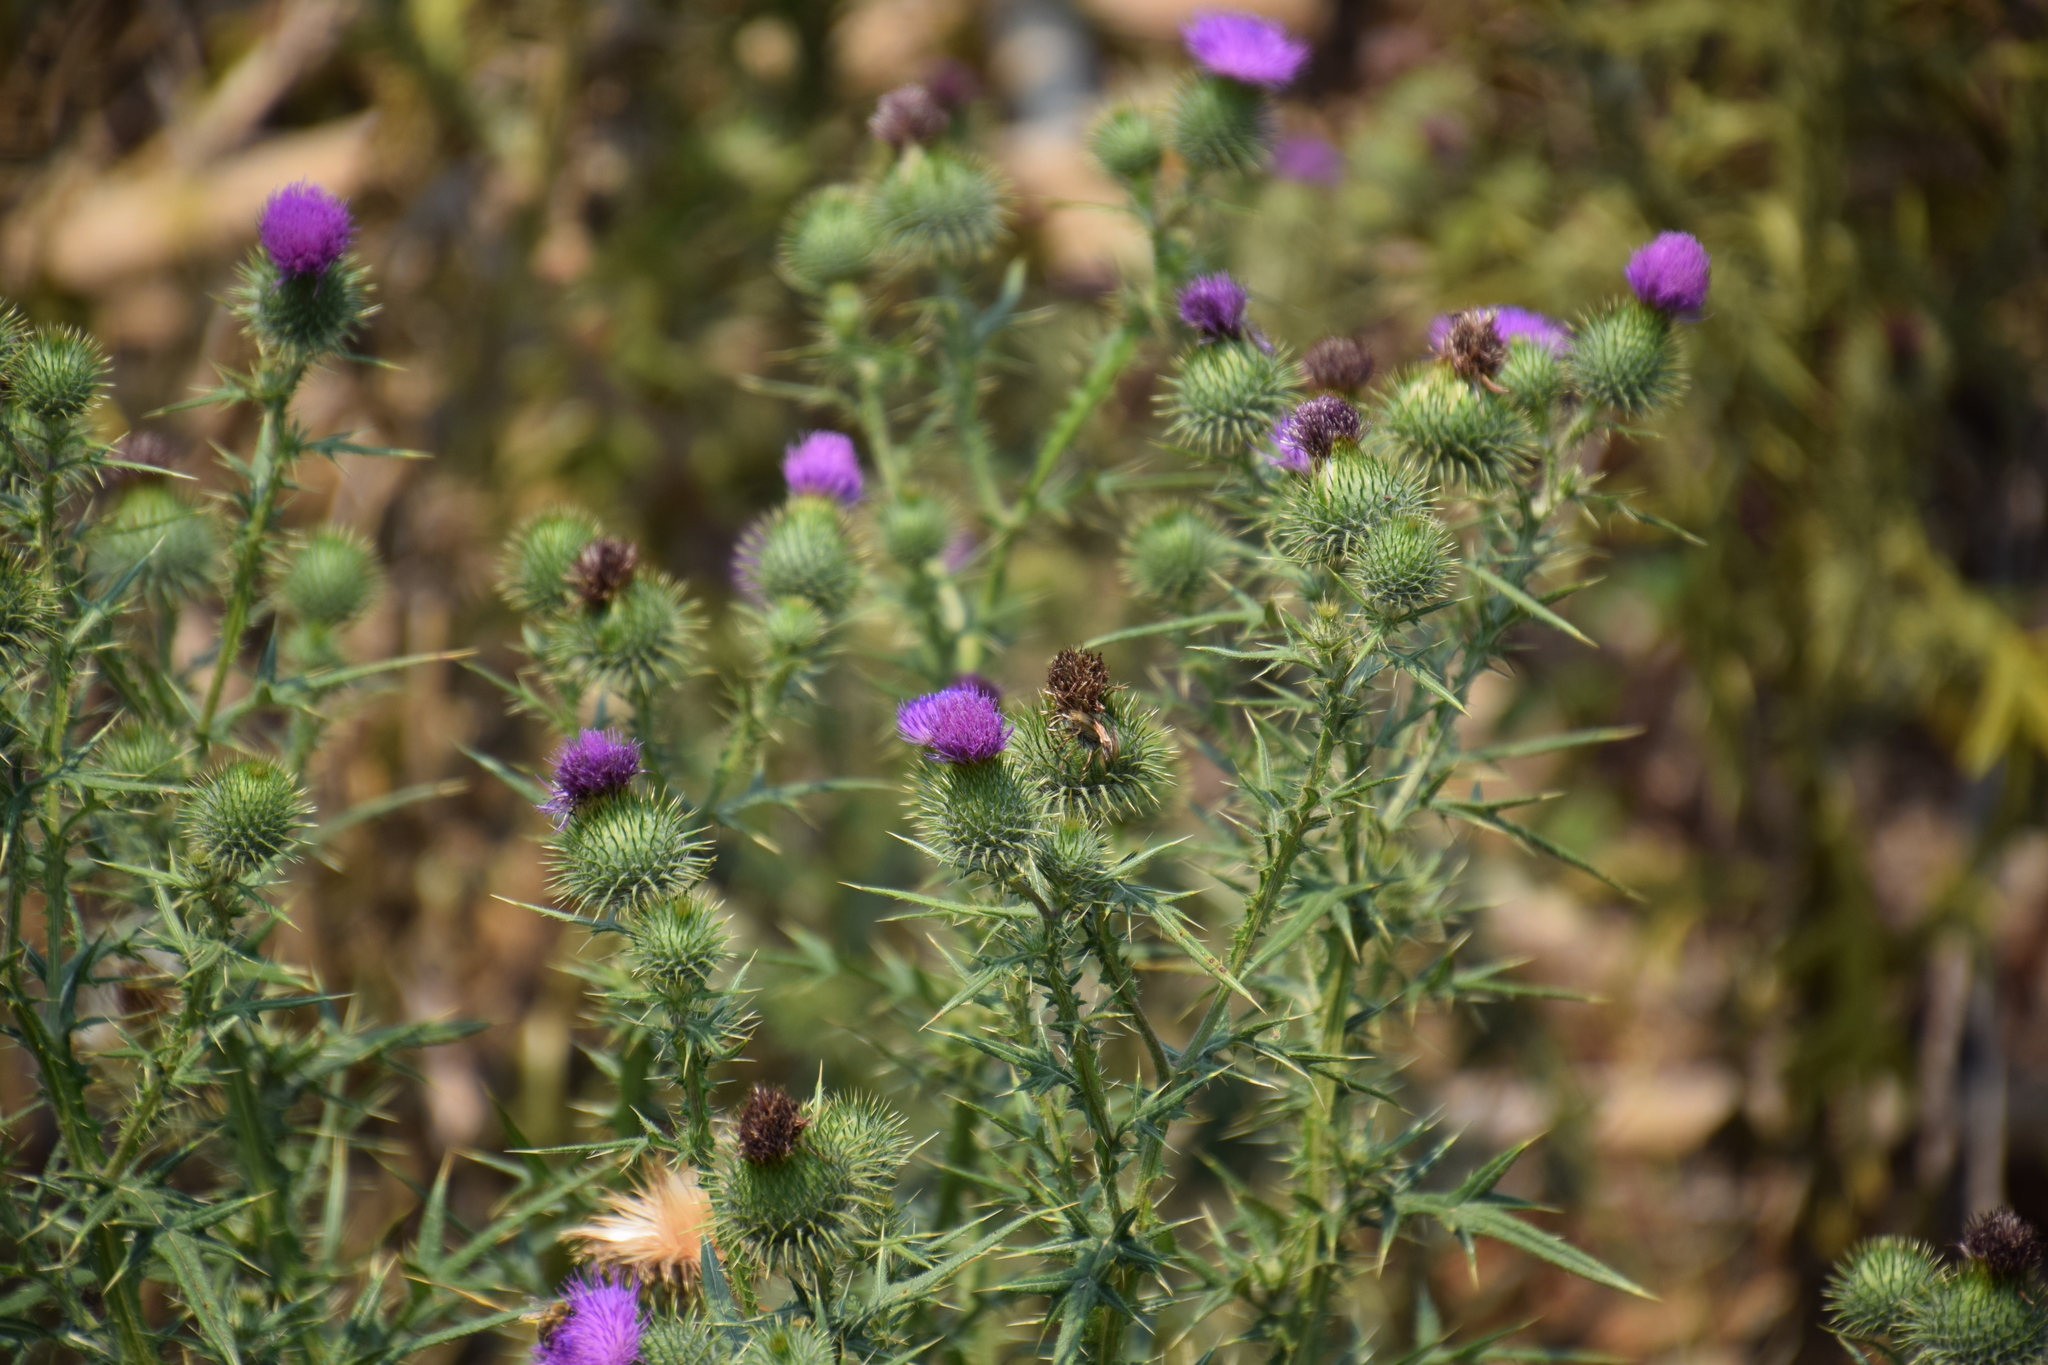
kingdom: Plantae
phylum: Tracheophyta
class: Magnoliopsida
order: Asterales
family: Asteraceae
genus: Cirsium
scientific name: Cirsium vulgare
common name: Bull thistle
